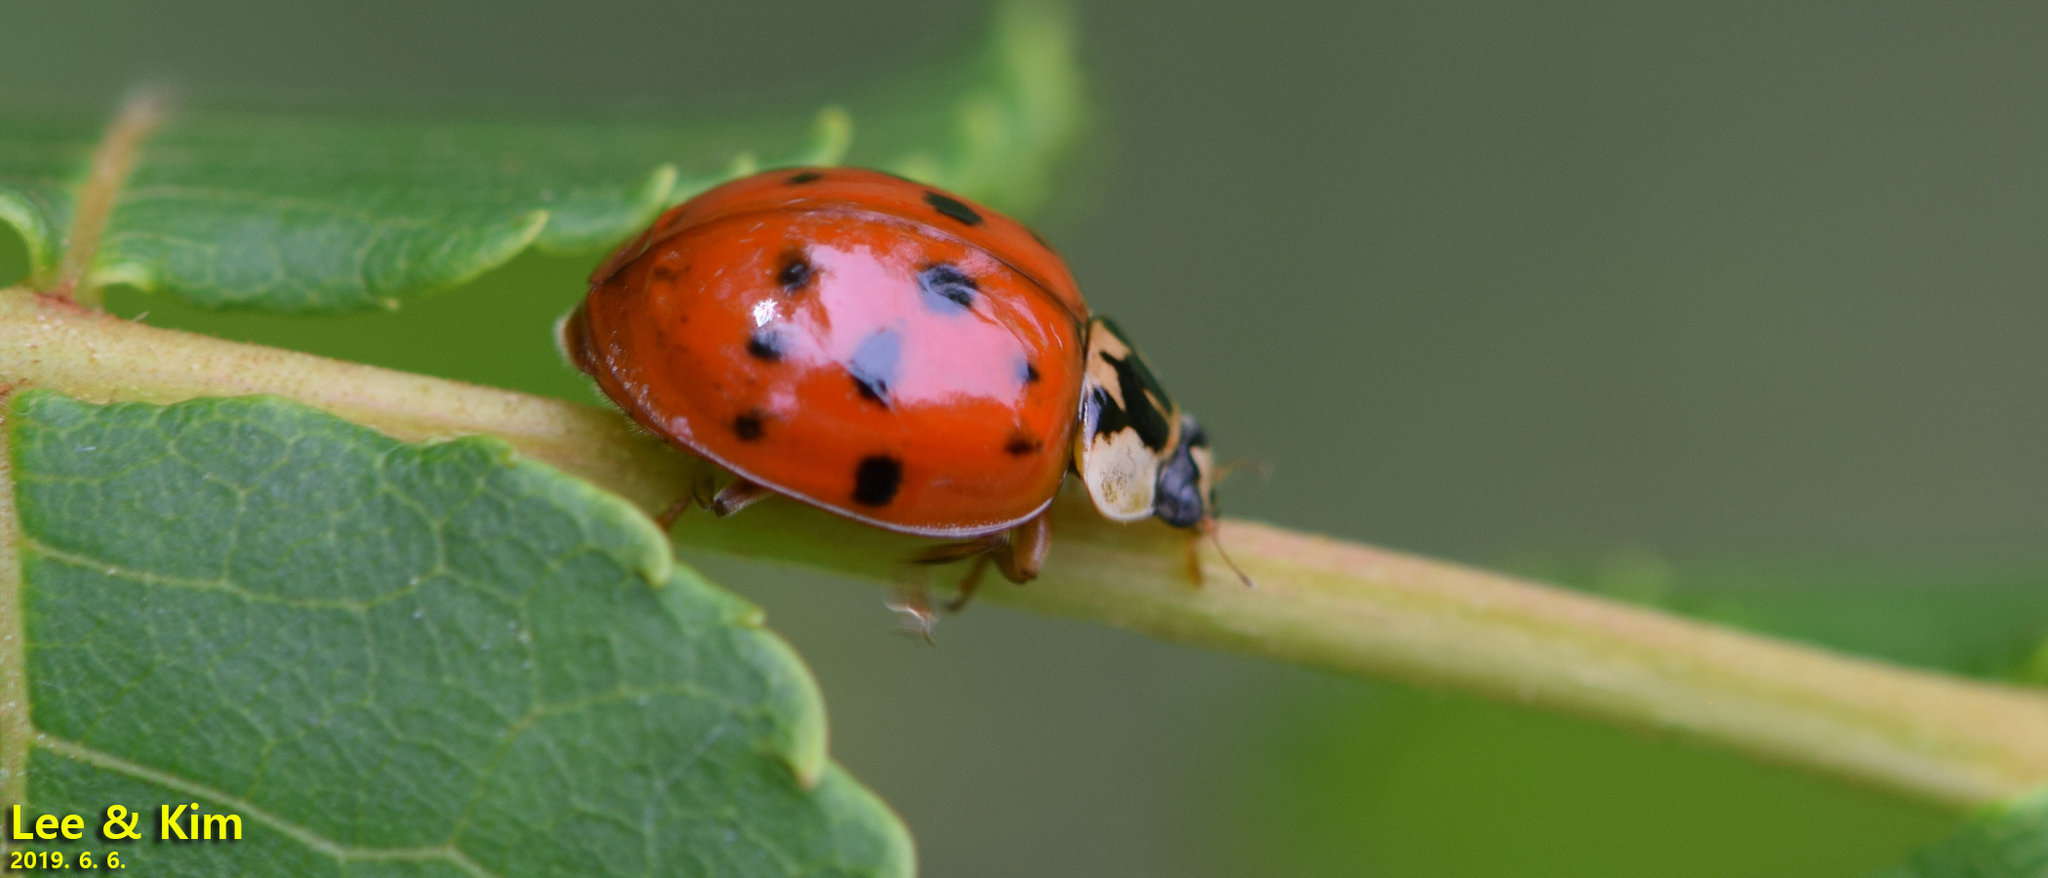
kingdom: Animalia
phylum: Arthropoda
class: Insecta
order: Coleoptera
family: Coccinellidae
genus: Harmonia
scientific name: Harmonia axyridis
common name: Harlequin ladybird
